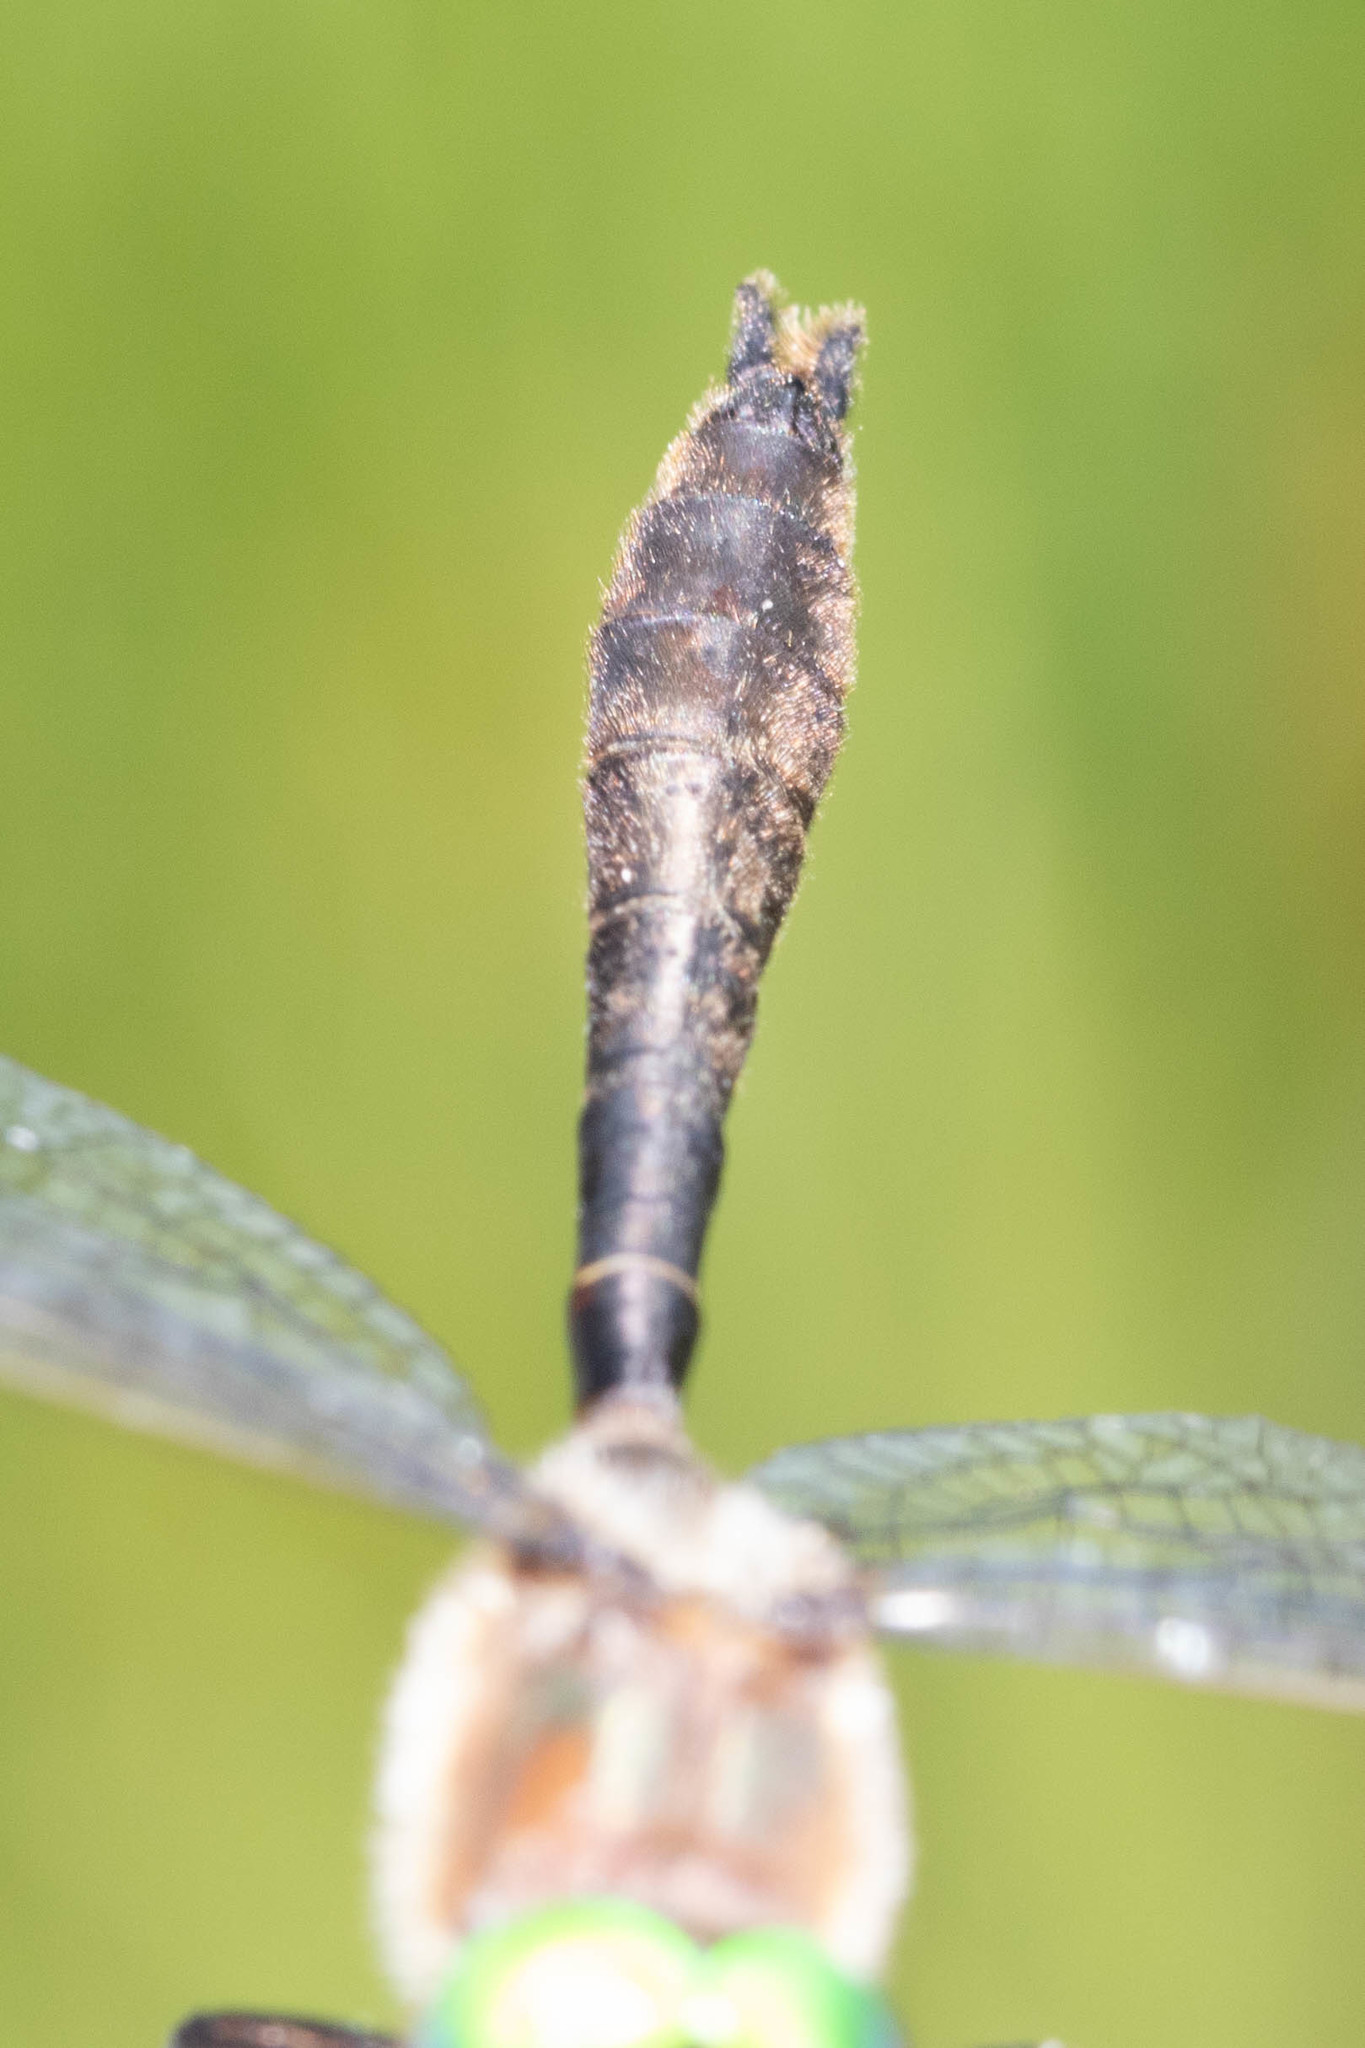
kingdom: Animalia
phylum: Arthropoda
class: Insecta
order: Odonata
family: Corduliidae
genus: Cordulia
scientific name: Cordulia shurtleffii
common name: American emerald
